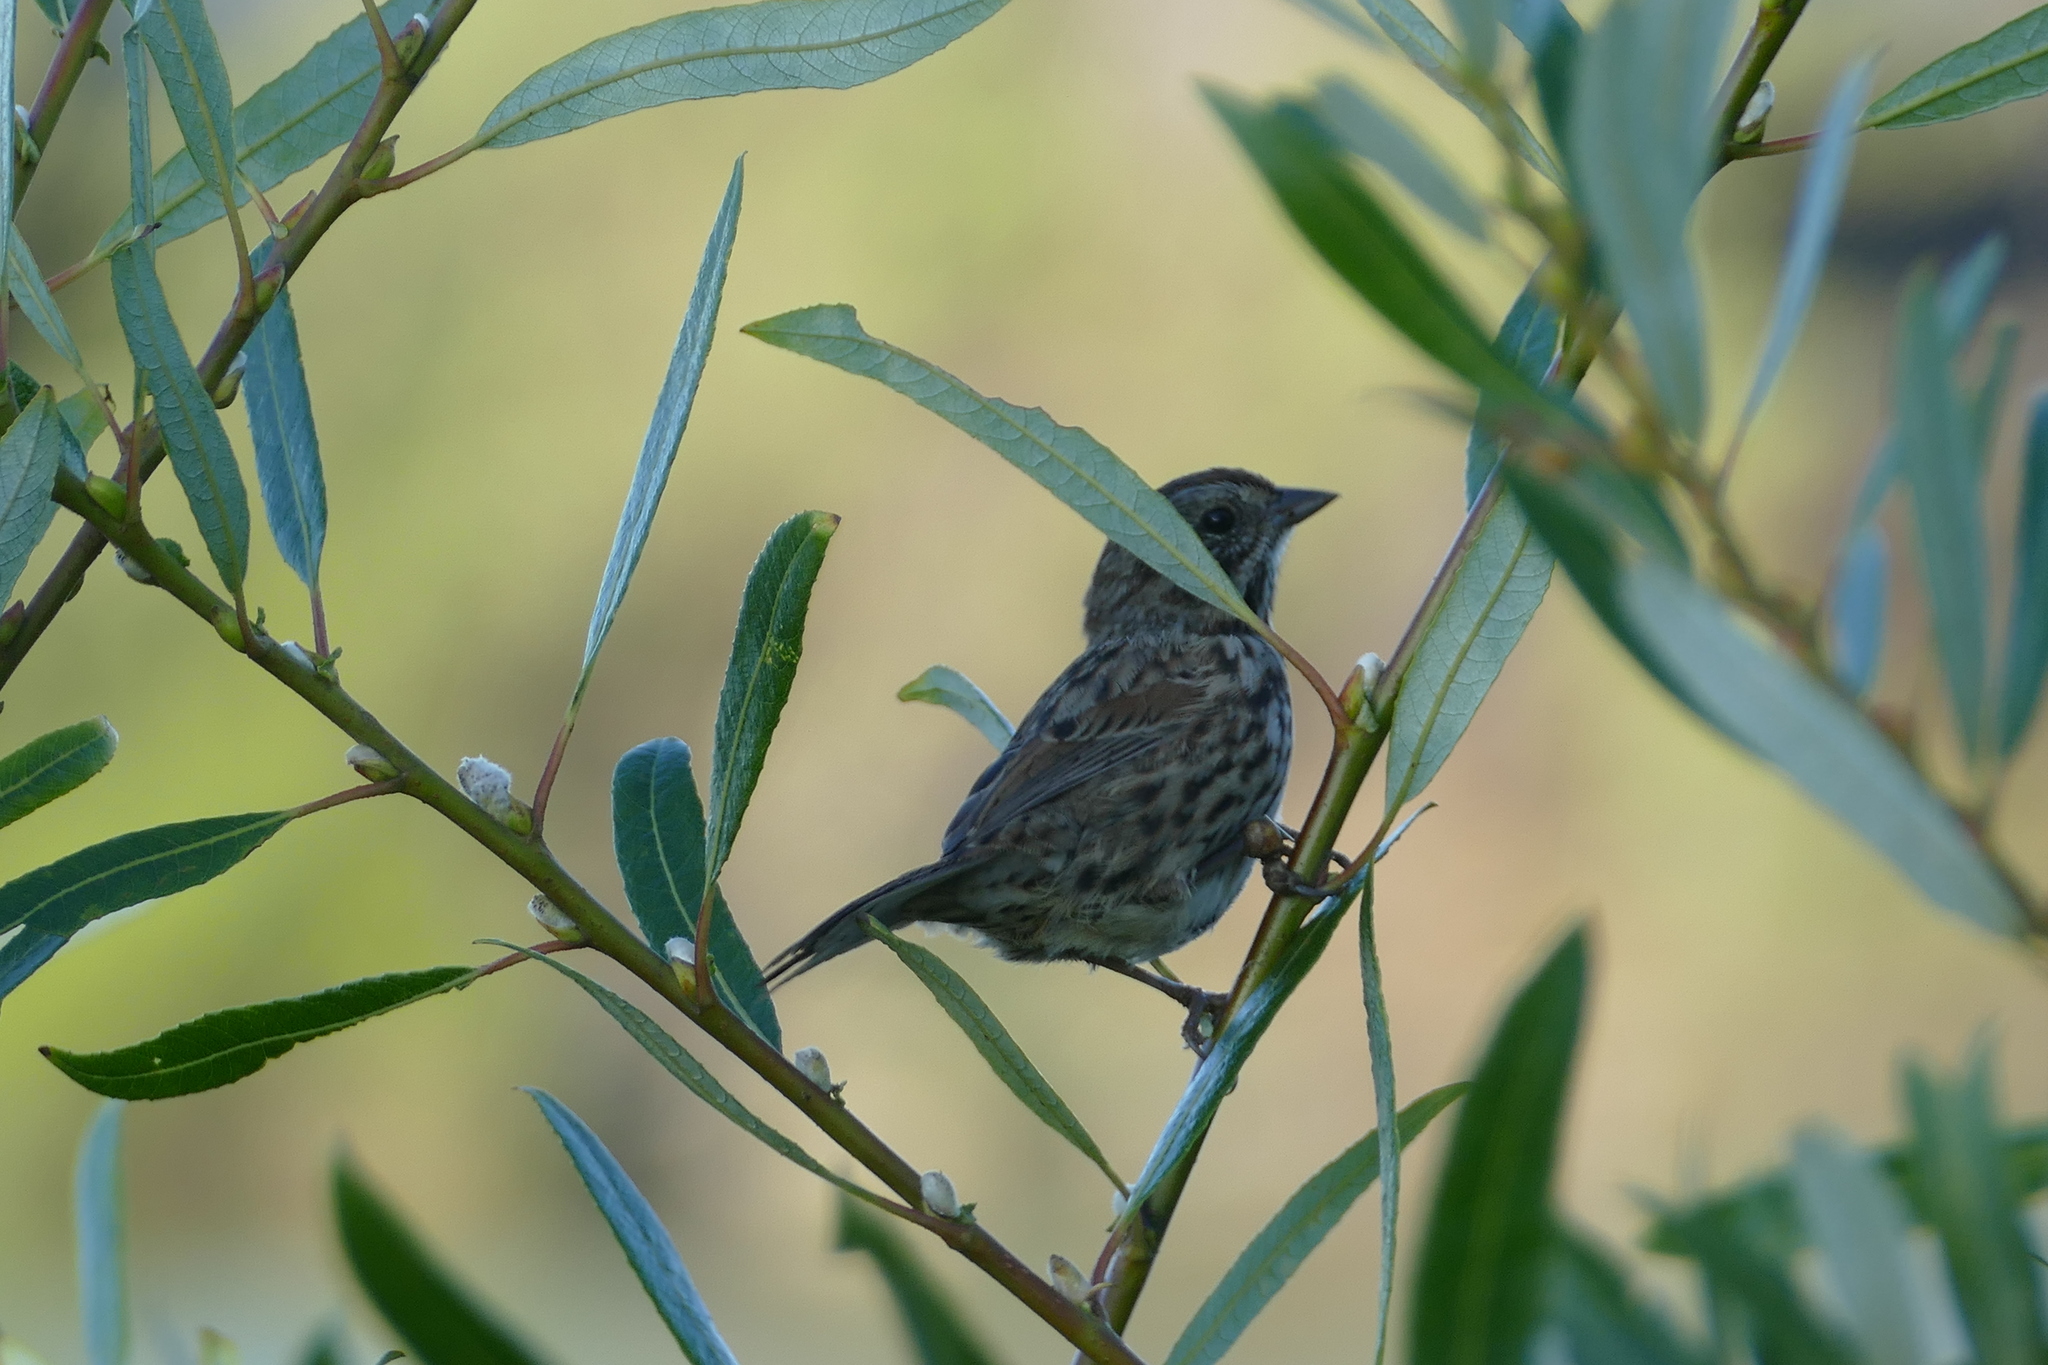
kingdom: Animalia
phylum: Chordata
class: Aves
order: Passeriformes
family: Passerellidae
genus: Melospiza
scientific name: Melospiza melodia
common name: Song sparrow
